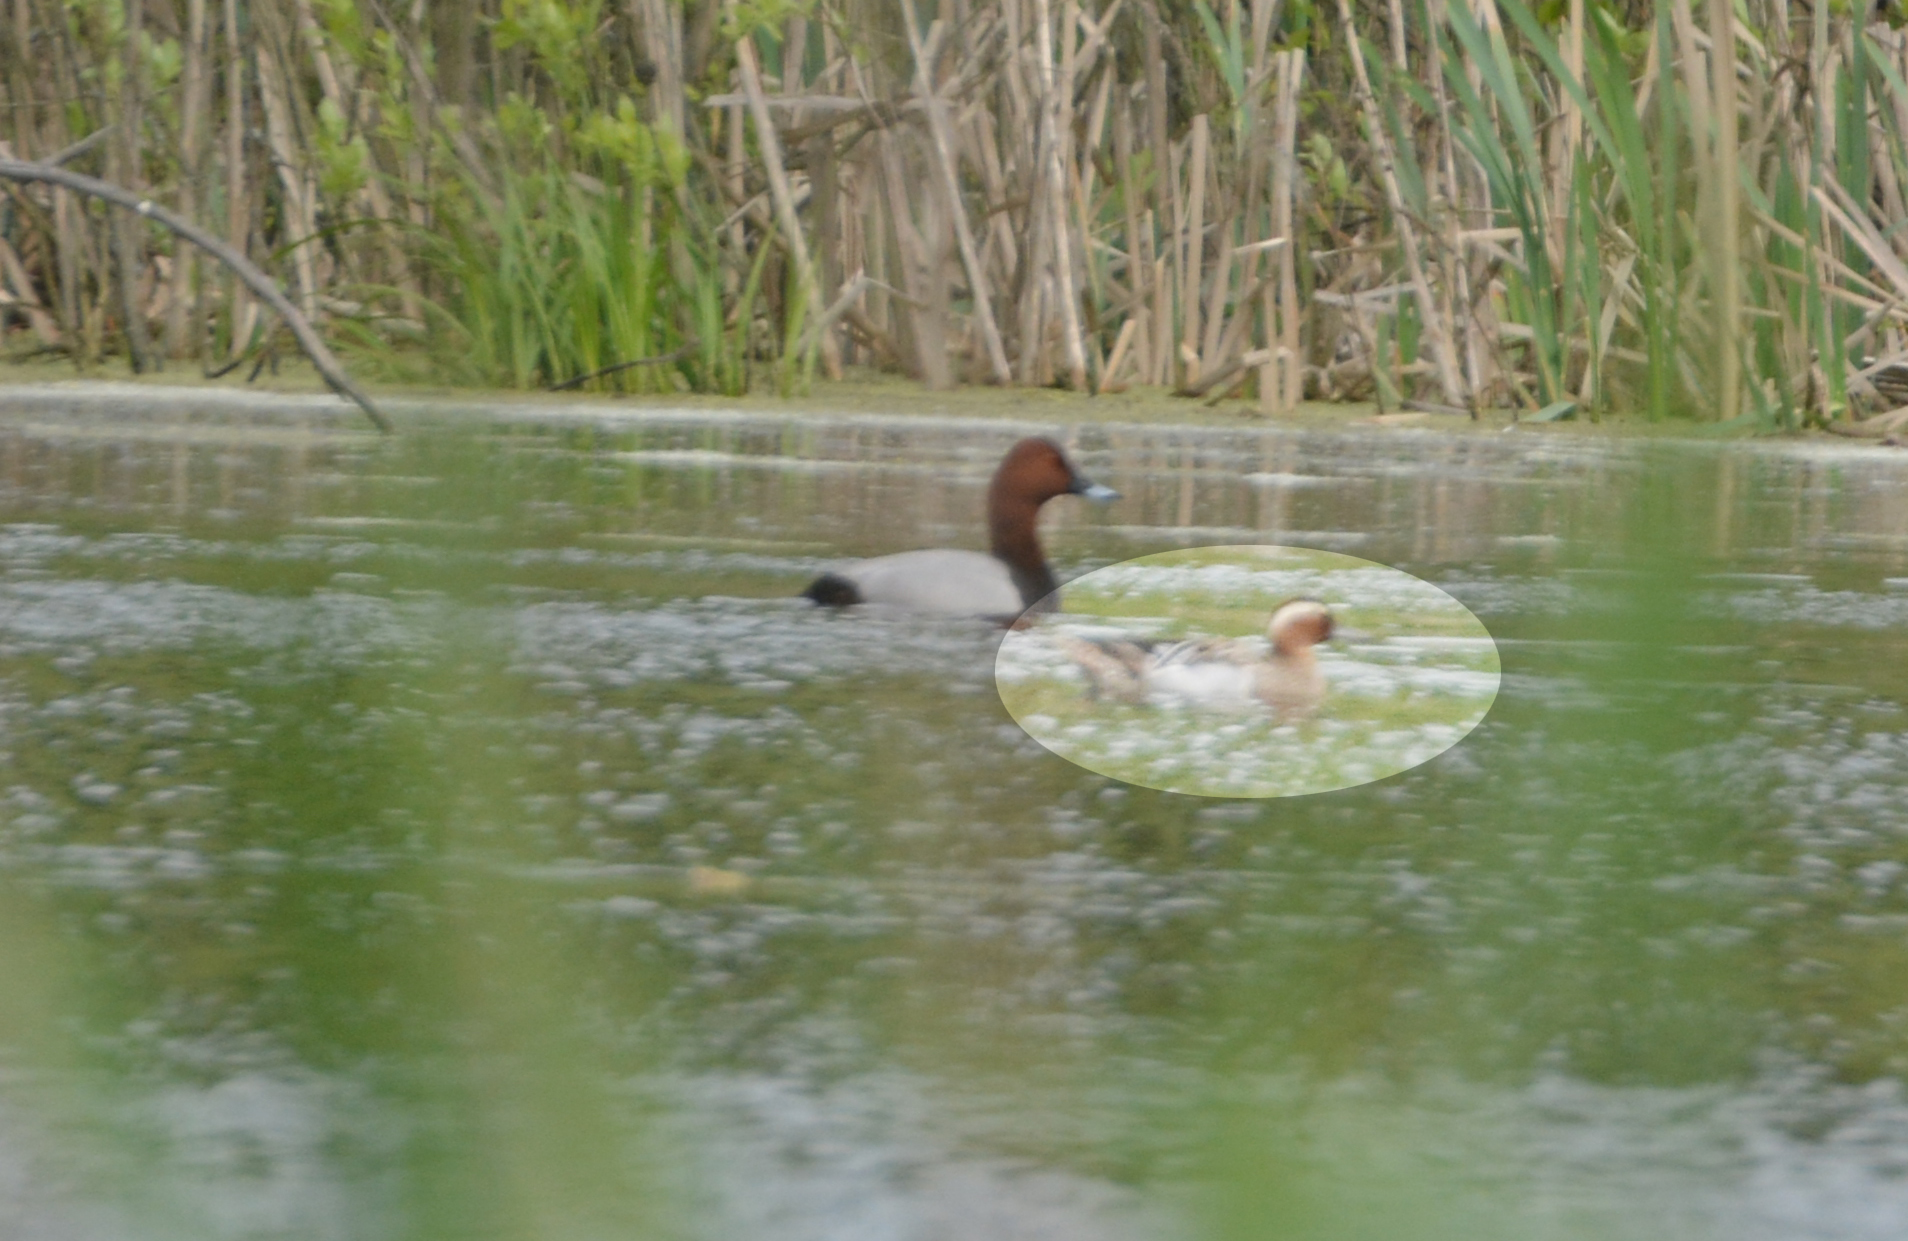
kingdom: Animalia
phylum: Chordata
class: Aves
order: Anseriformes
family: Anatidae
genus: Spatula
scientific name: Spatula querquedula
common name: Garganey
